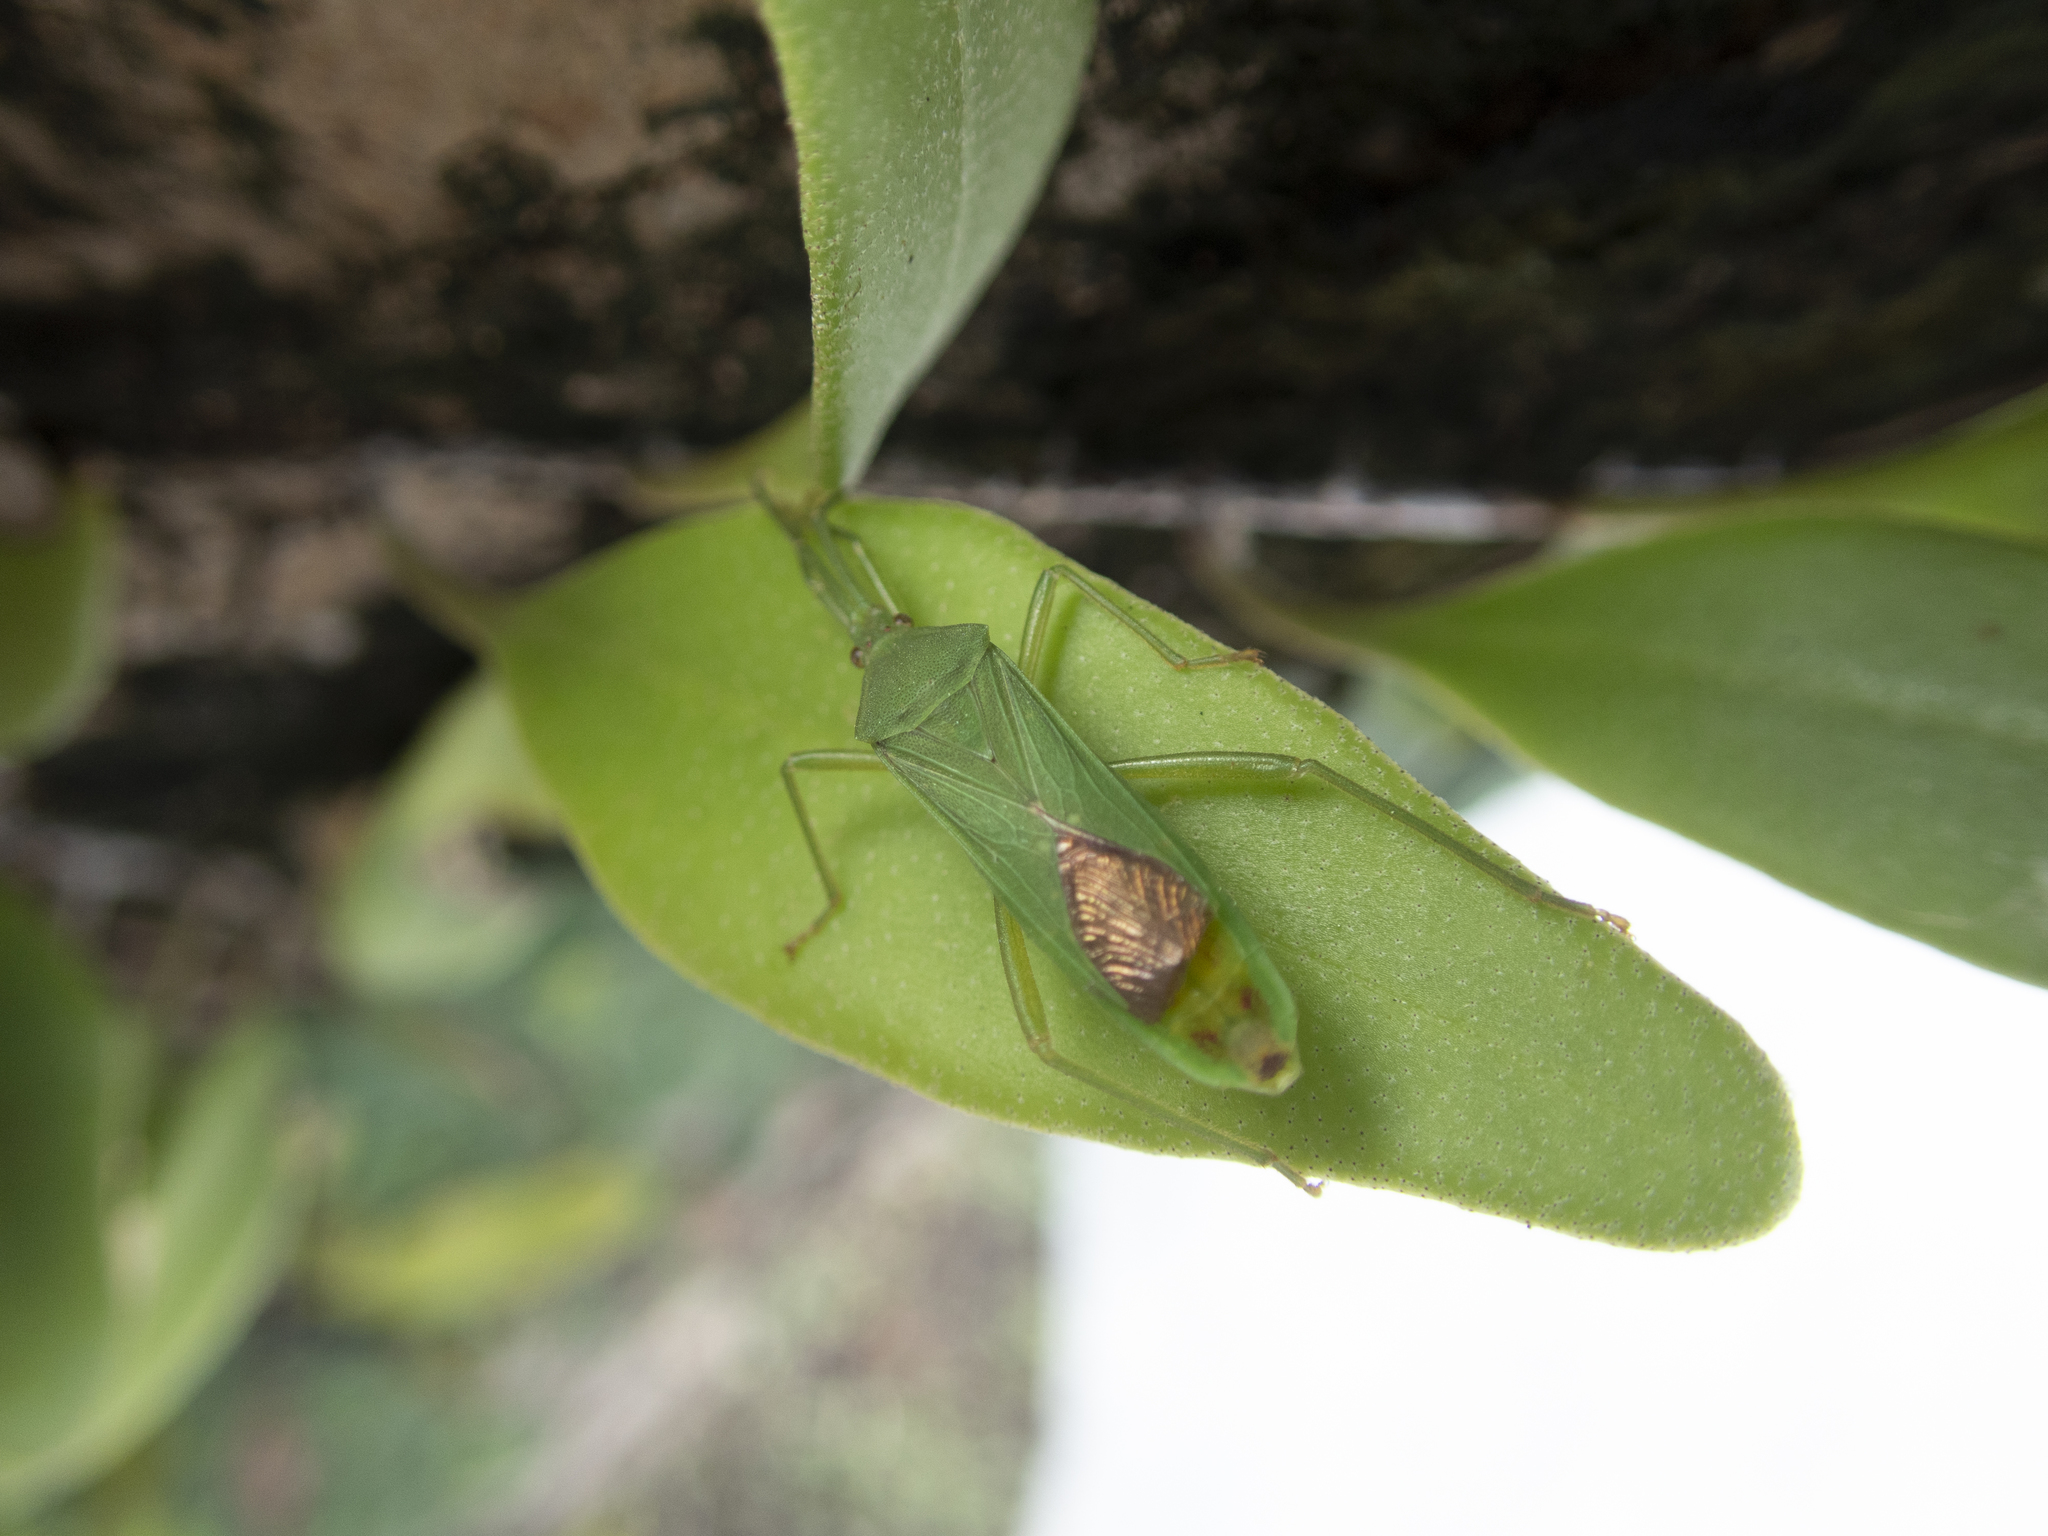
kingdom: Animalia
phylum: Arthropoda
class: Insecta
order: Hemiptera
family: Coreidae
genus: Homoeocerus
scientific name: Homoeocerus graminis
